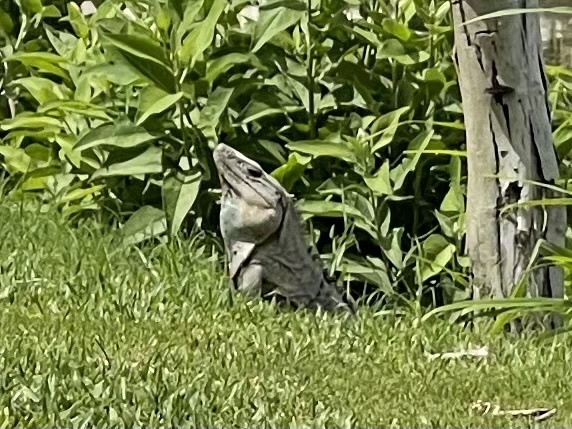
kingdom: Animalia
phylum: Chordata
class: Squamata
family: Iguanidae
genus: Ctenosaura
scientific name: Ctenosaura similis
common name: Black spiny-tailed iguana
